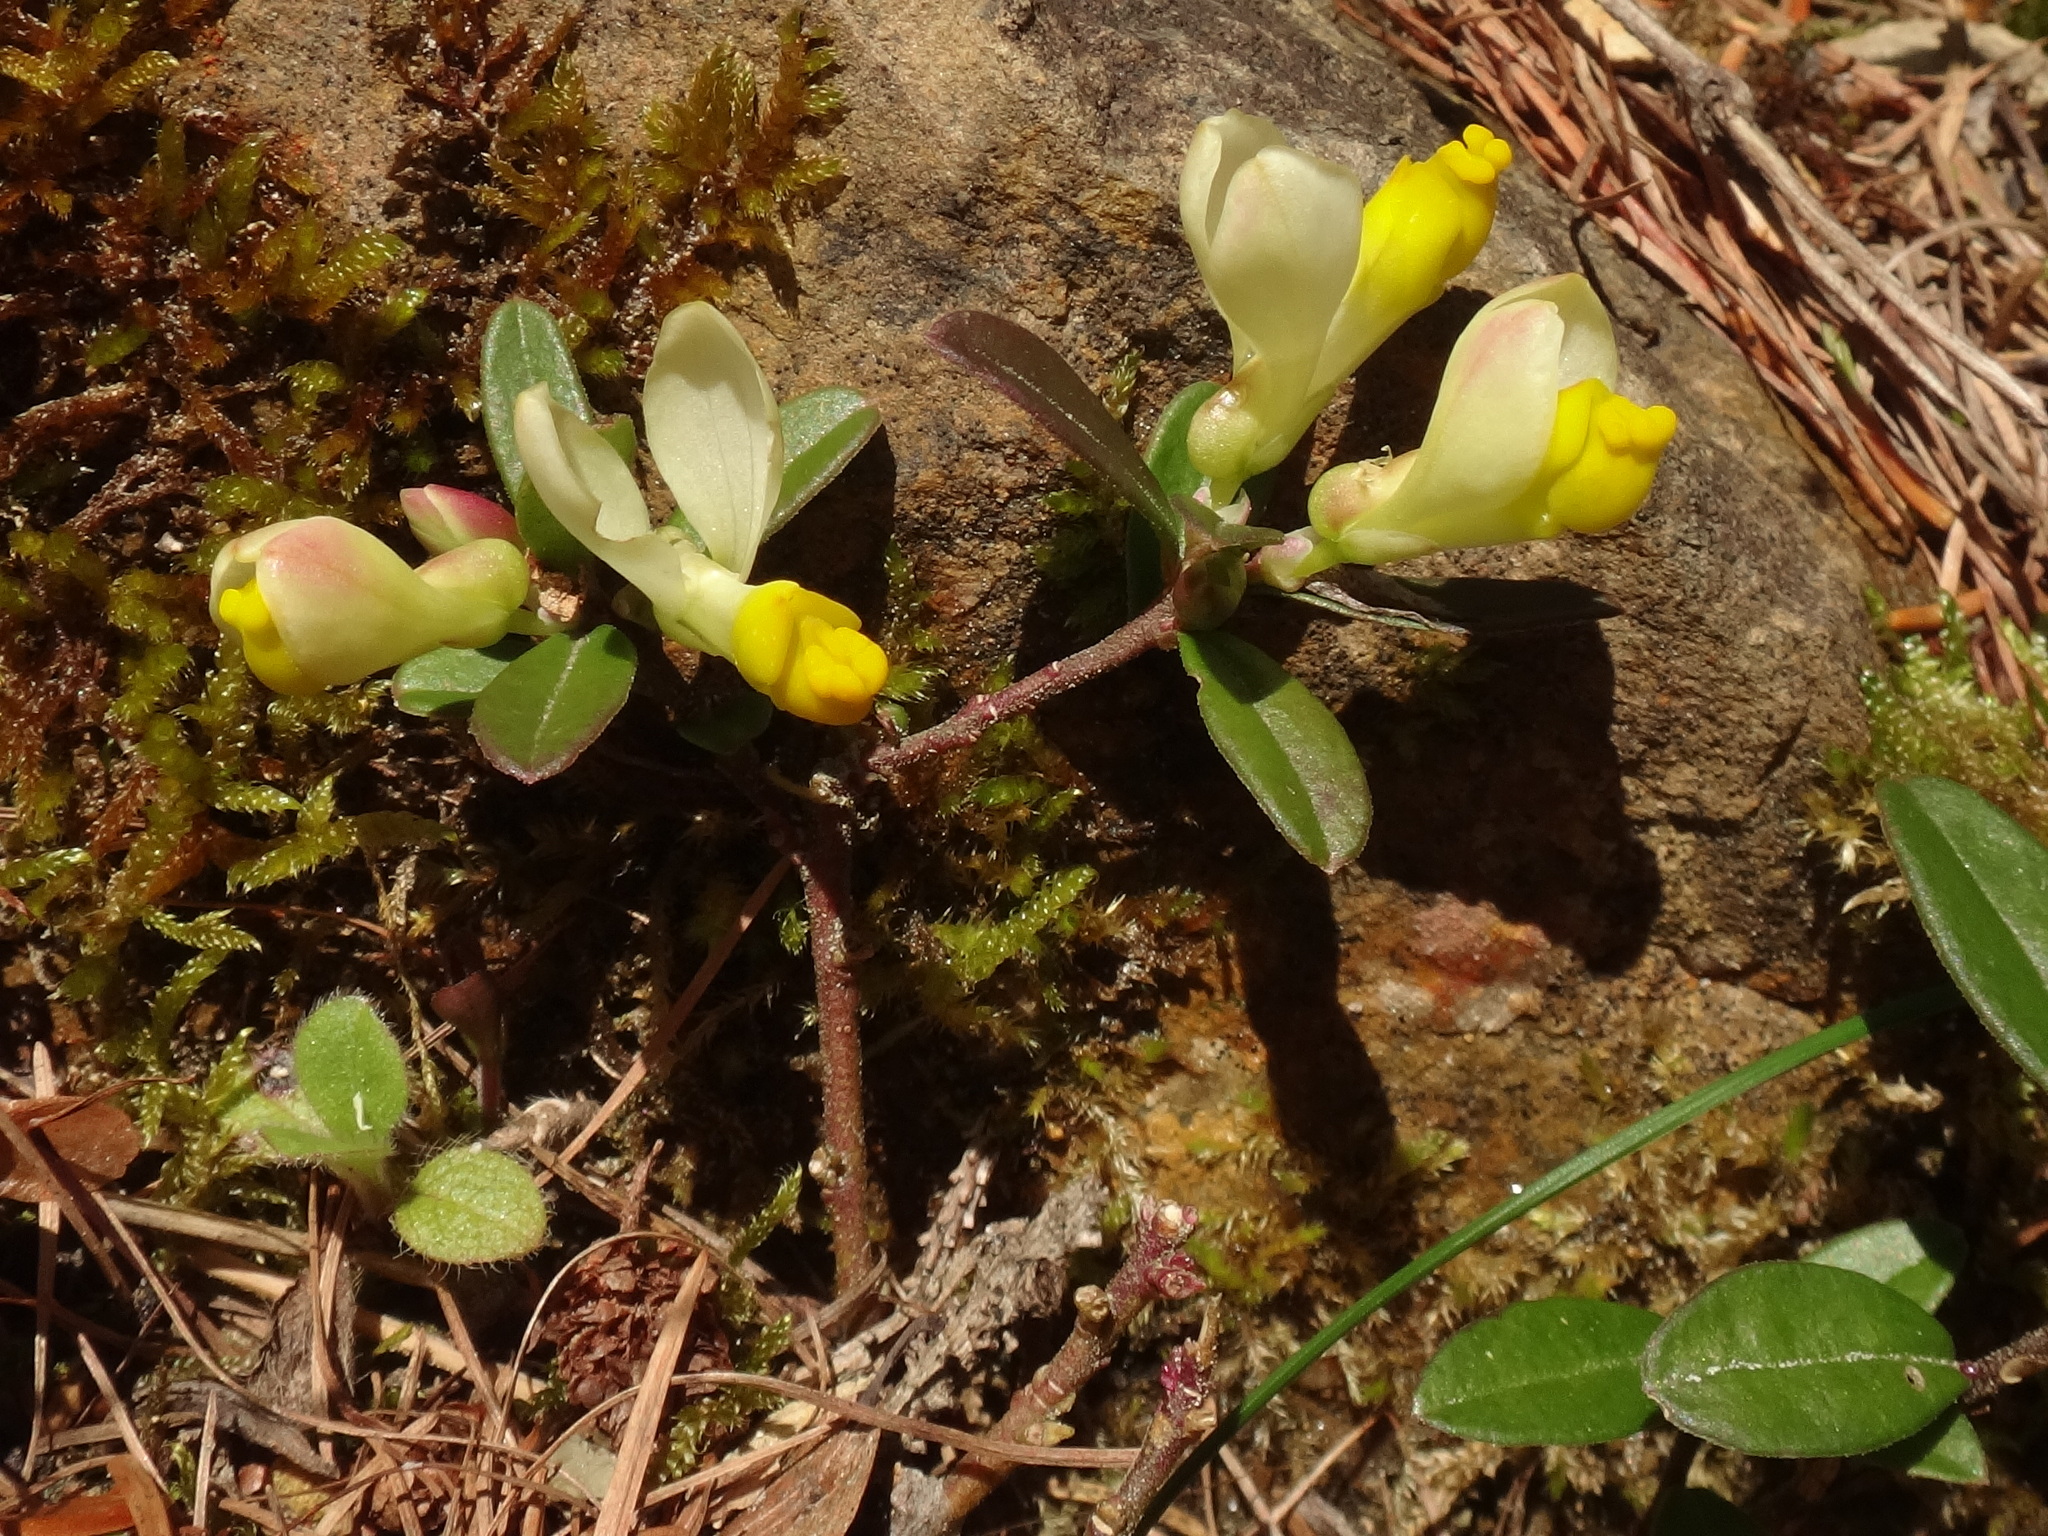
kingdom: Plantae
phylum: Tracheophyta
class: Magnoliopsida
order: Fabales
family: Polygalaceae
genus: Polygaloides
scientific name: Polygaloides chamaebuxus
